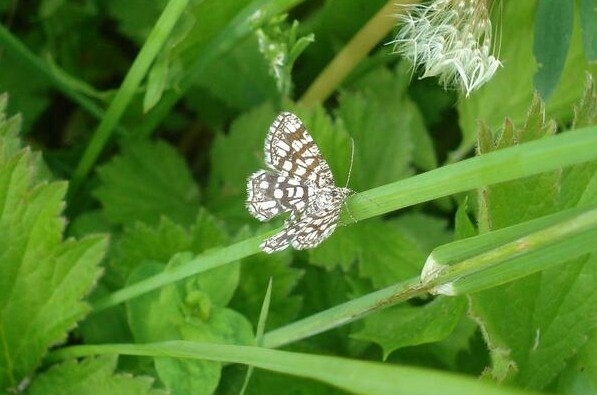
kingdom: Animalia
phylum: Arthropoda
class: Insecta
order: Lepidoptera
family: Geometridae
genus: Chiasmia
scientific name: Chiasmia clathrata
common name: Latticed heath
